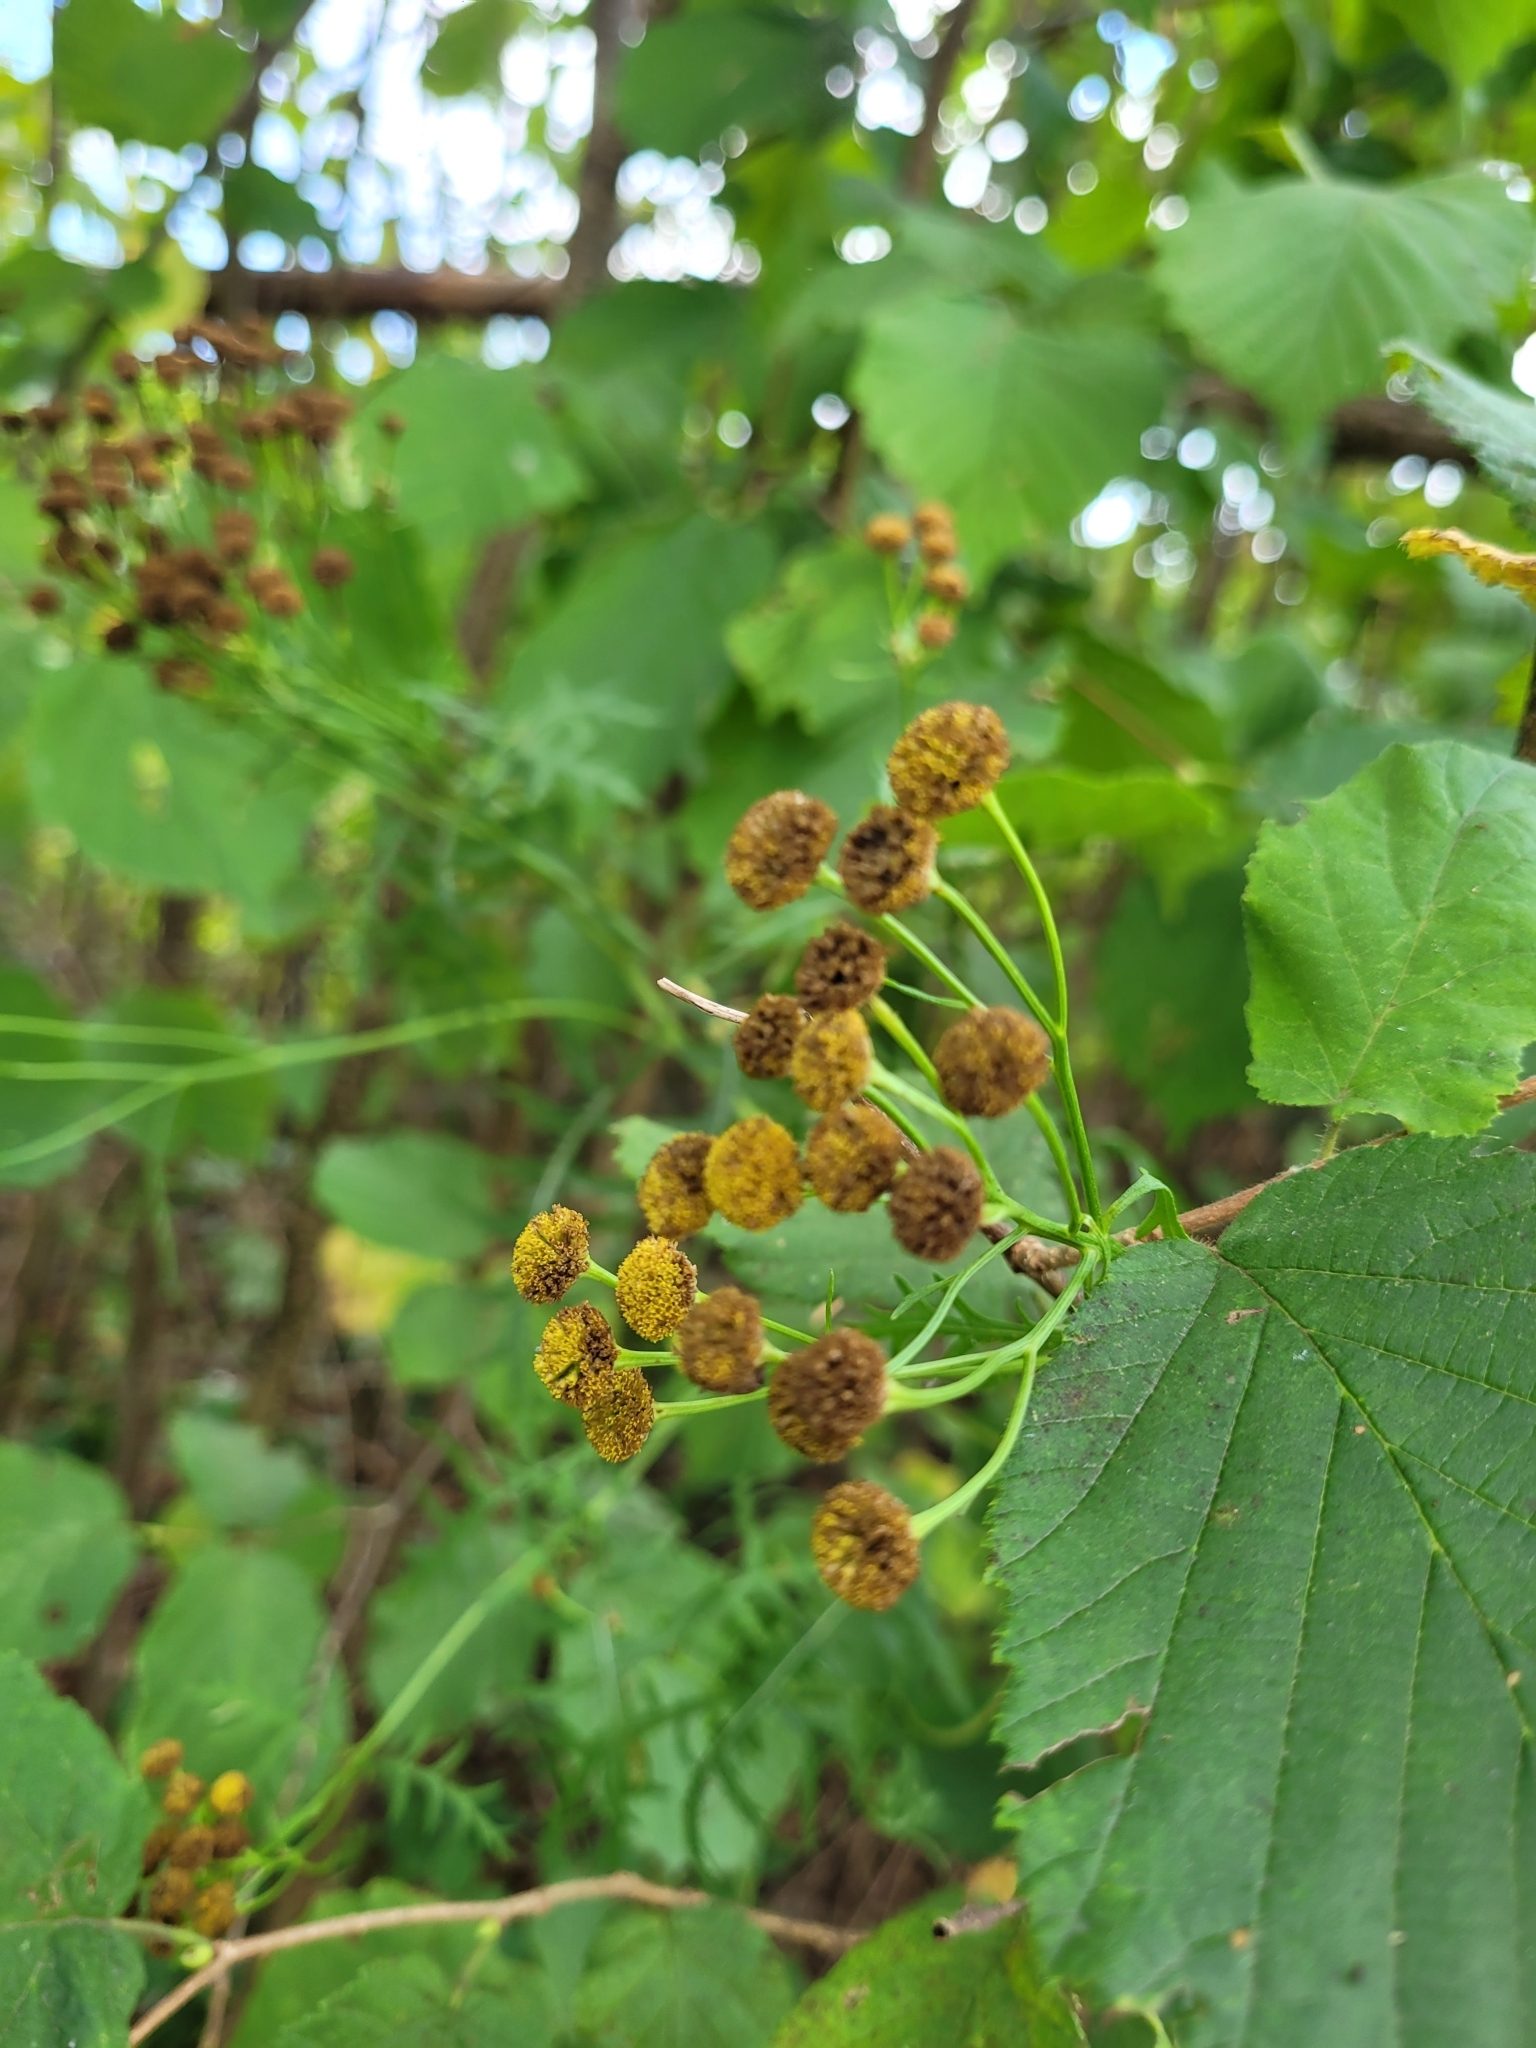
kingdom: Plantae
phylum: Tracheophyta
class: Magnoliopsida
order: Asterales
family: Asteraceae
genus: Tanacetum
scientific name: Tanacetum vulgare
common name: Common tansy
